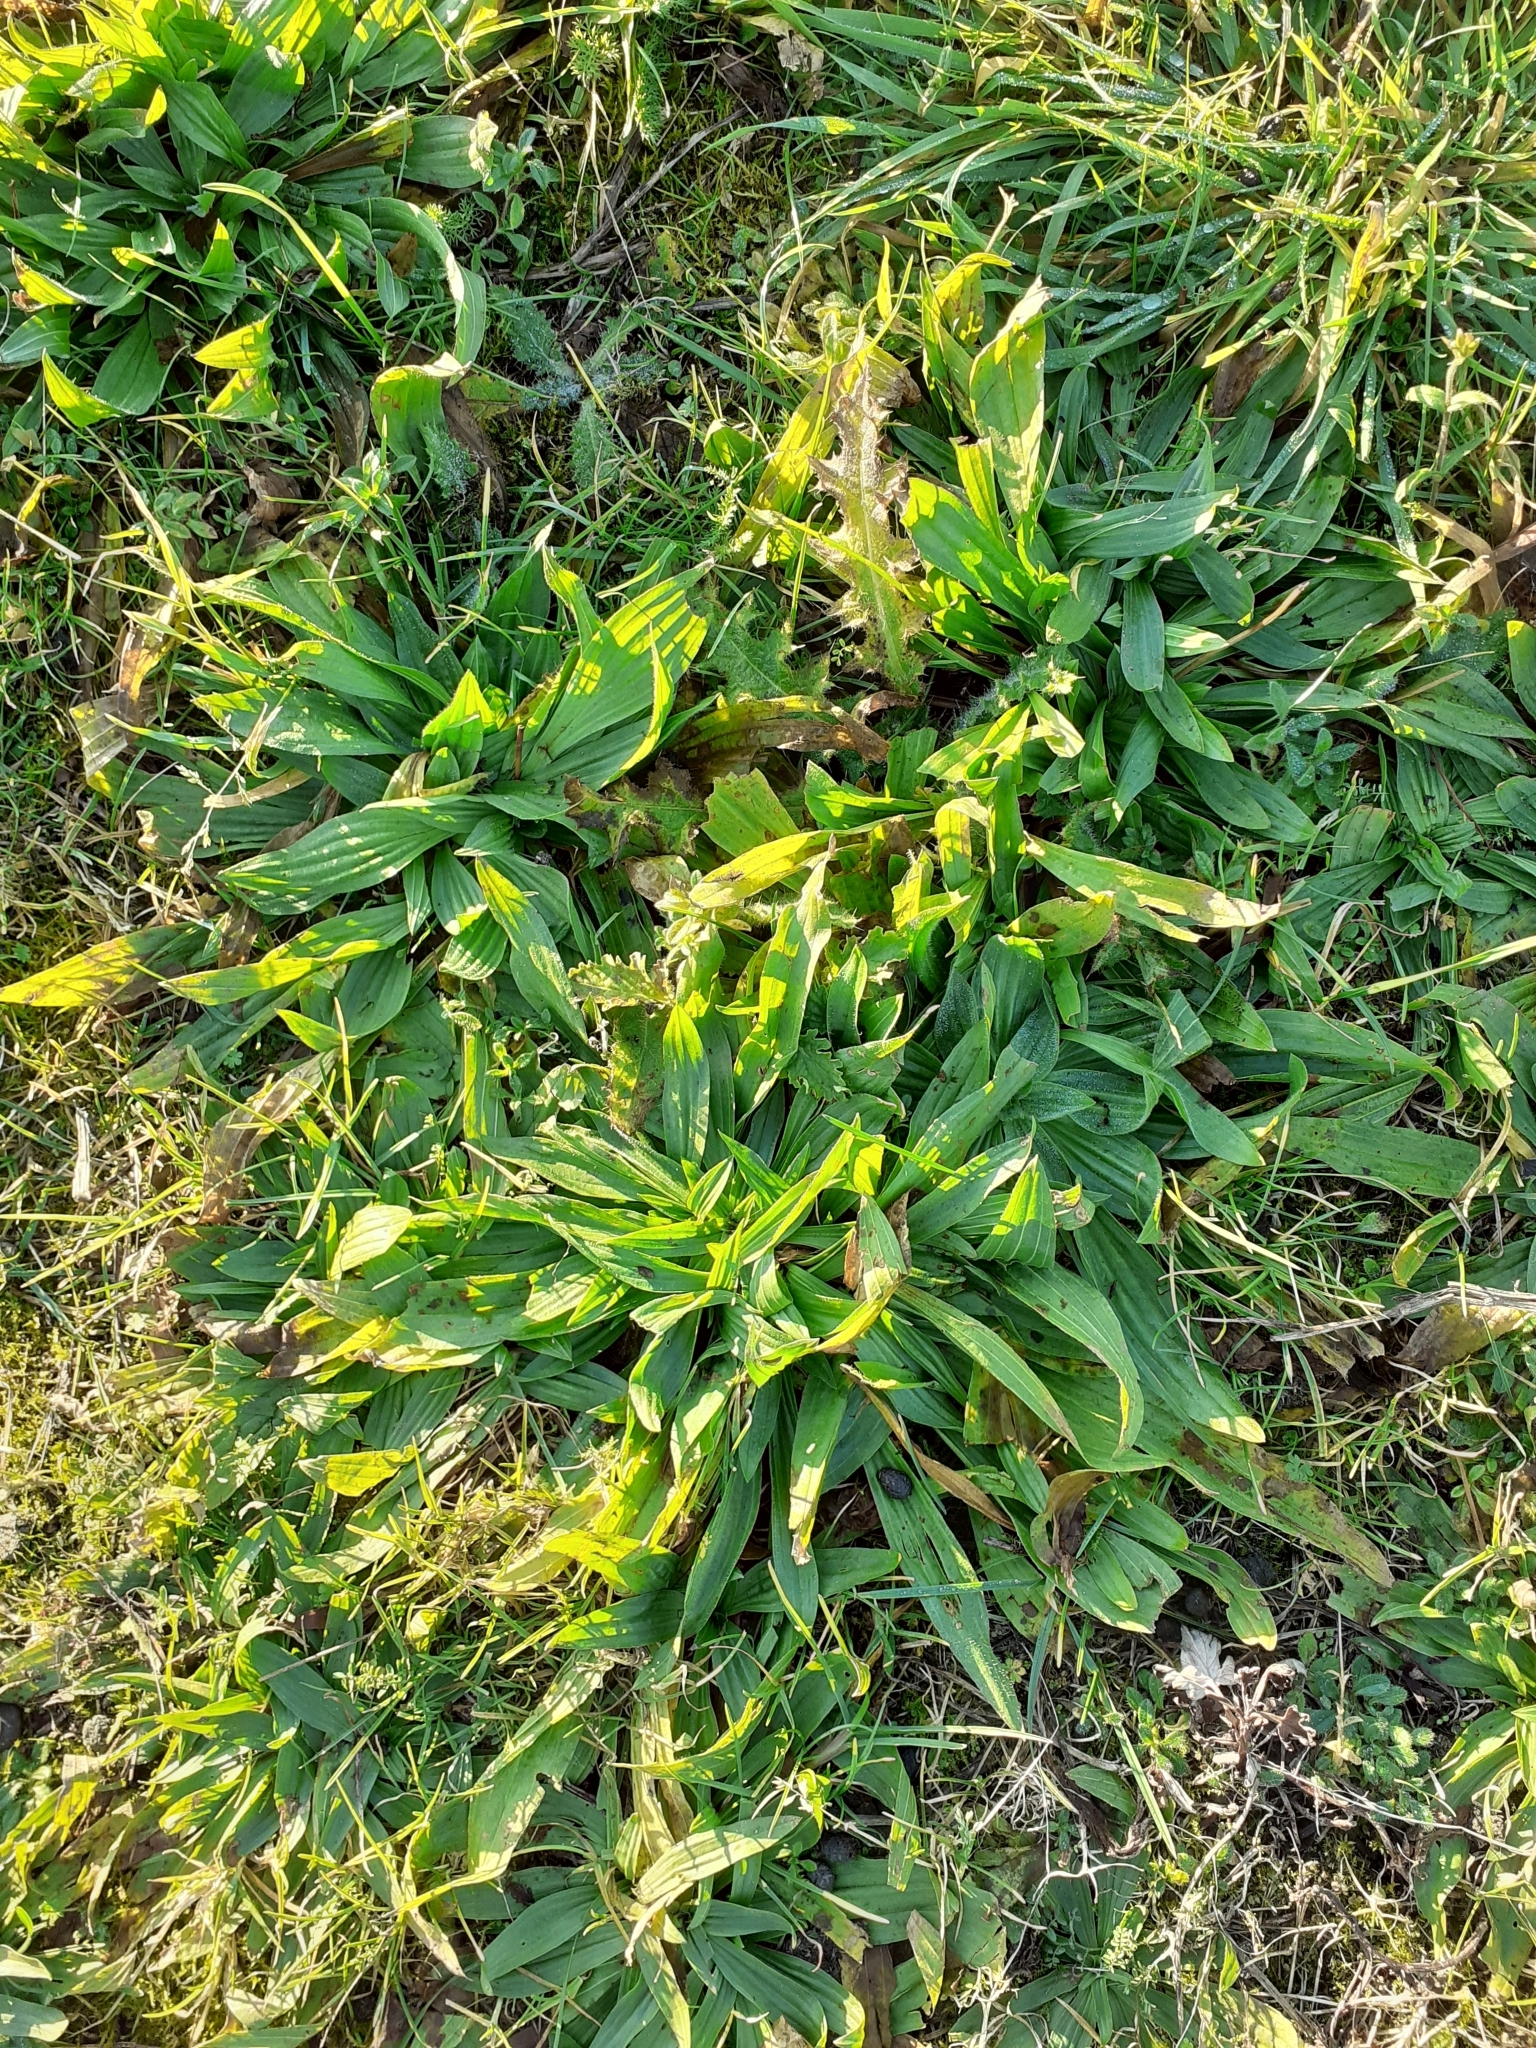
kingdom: Plantae
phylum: Tracheophyta
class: Magnoliopsida
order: Lamiales
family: Plantaginaceae
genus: Plantago
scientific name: Plantago lanceolata
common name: Ribwort plantain
